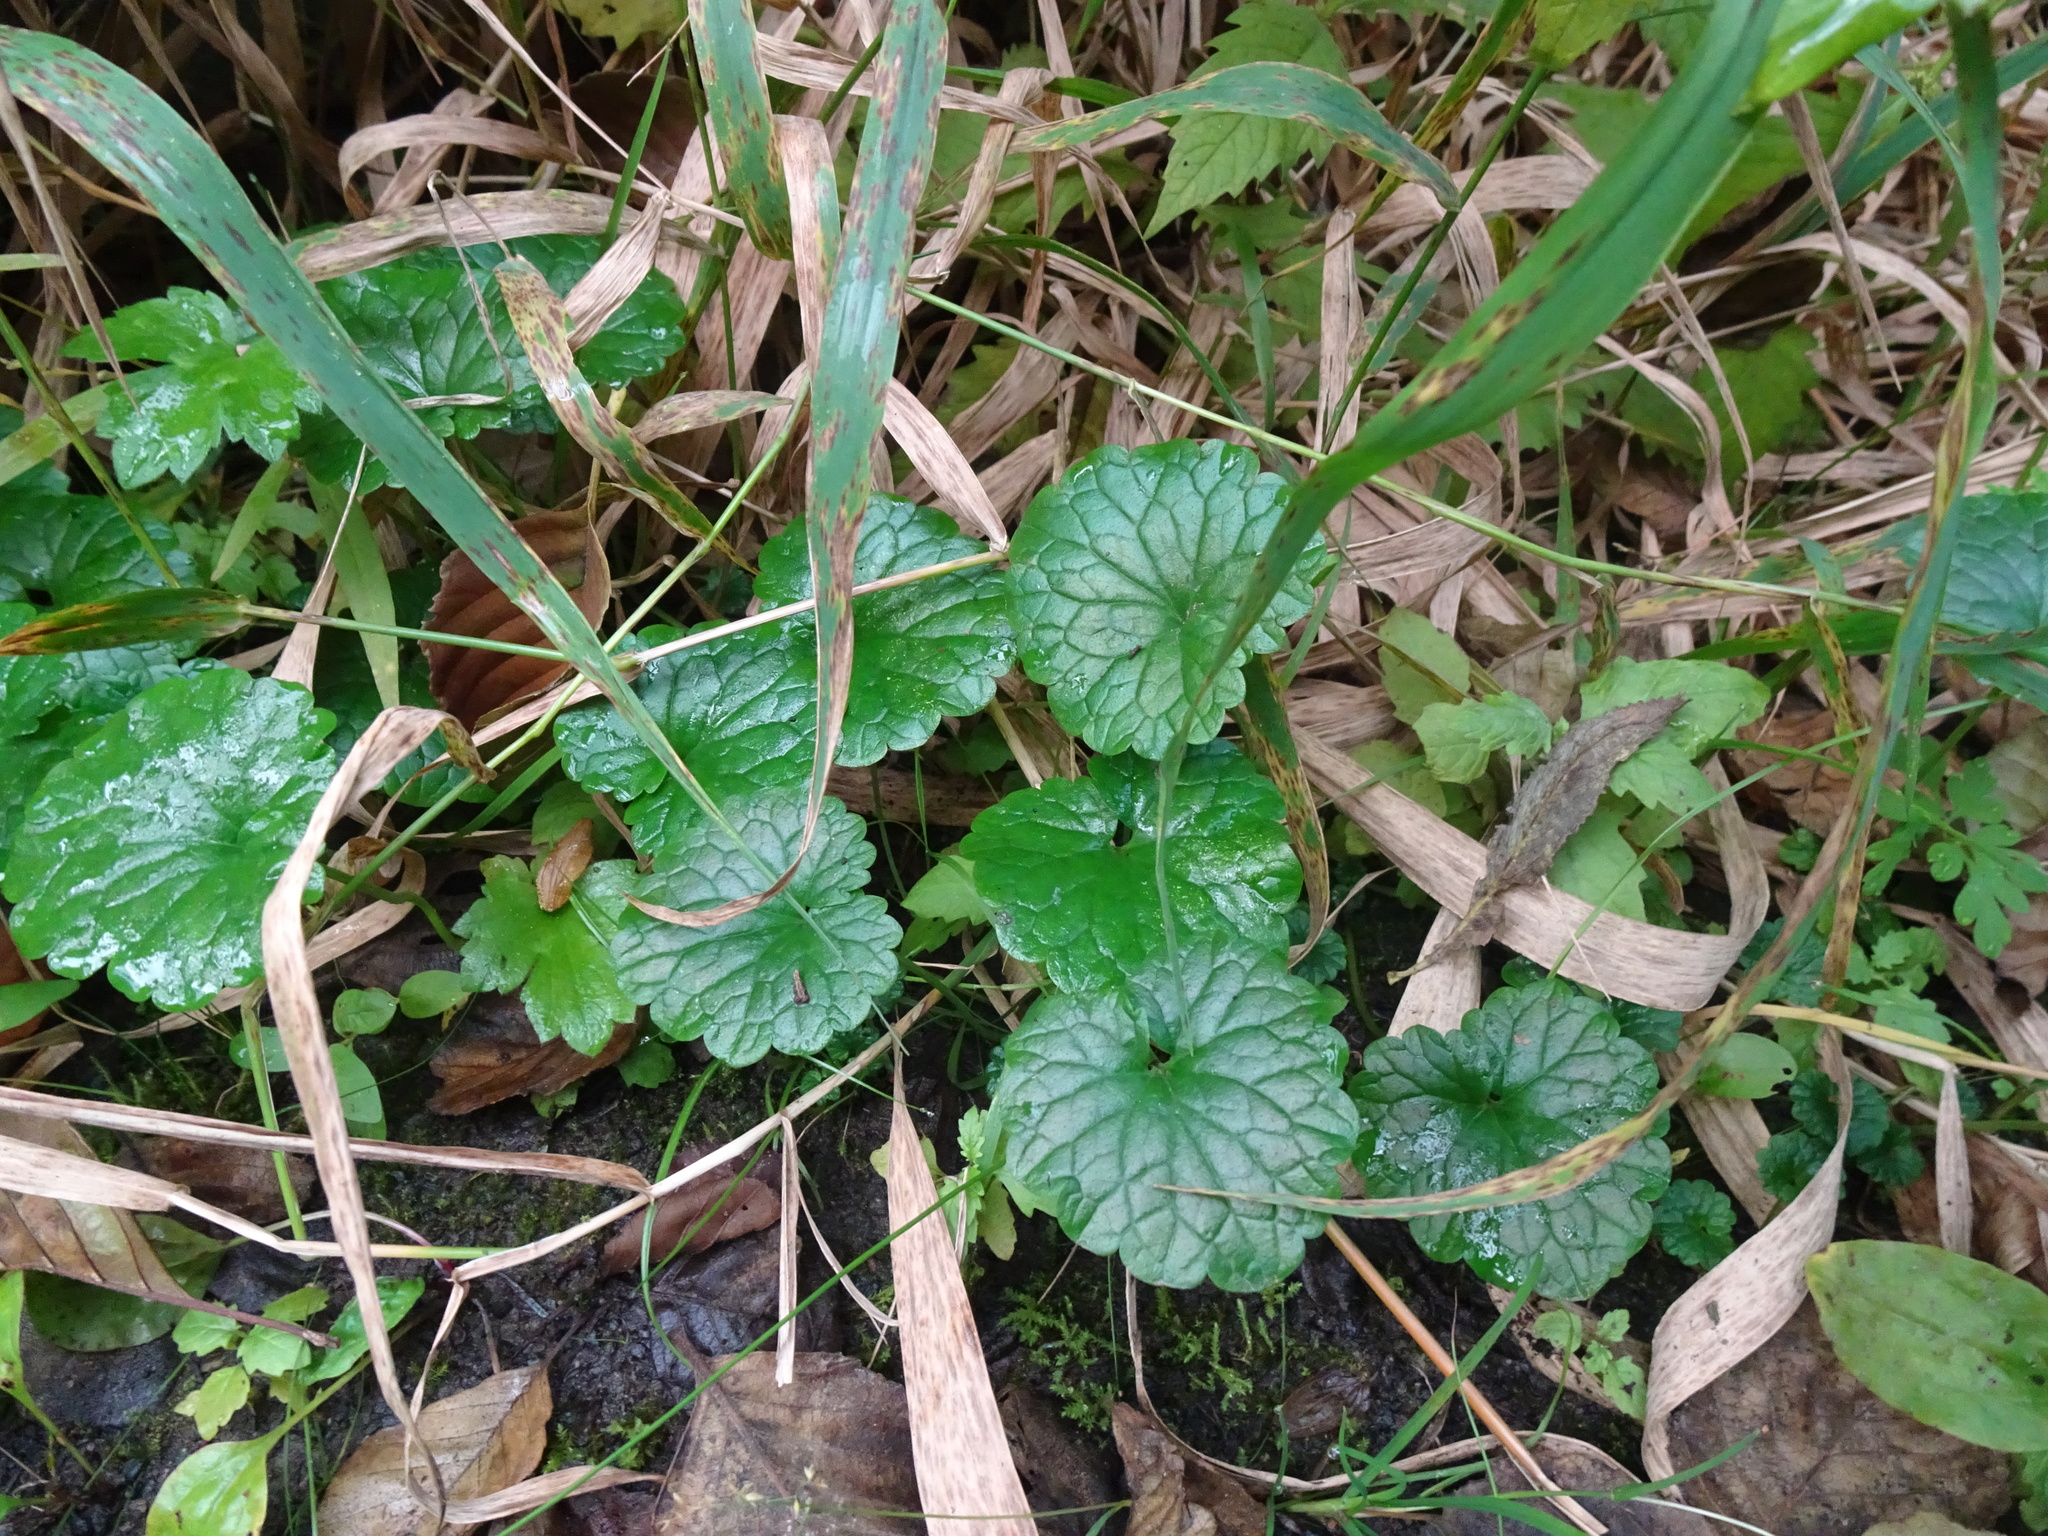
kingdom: Plantae
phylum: Tracheophyta
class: Magnoliopsida
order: Lamiales
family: Lamiaceae
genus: Glechoma
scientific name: Glechoma hederacea
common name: Ground ivy
